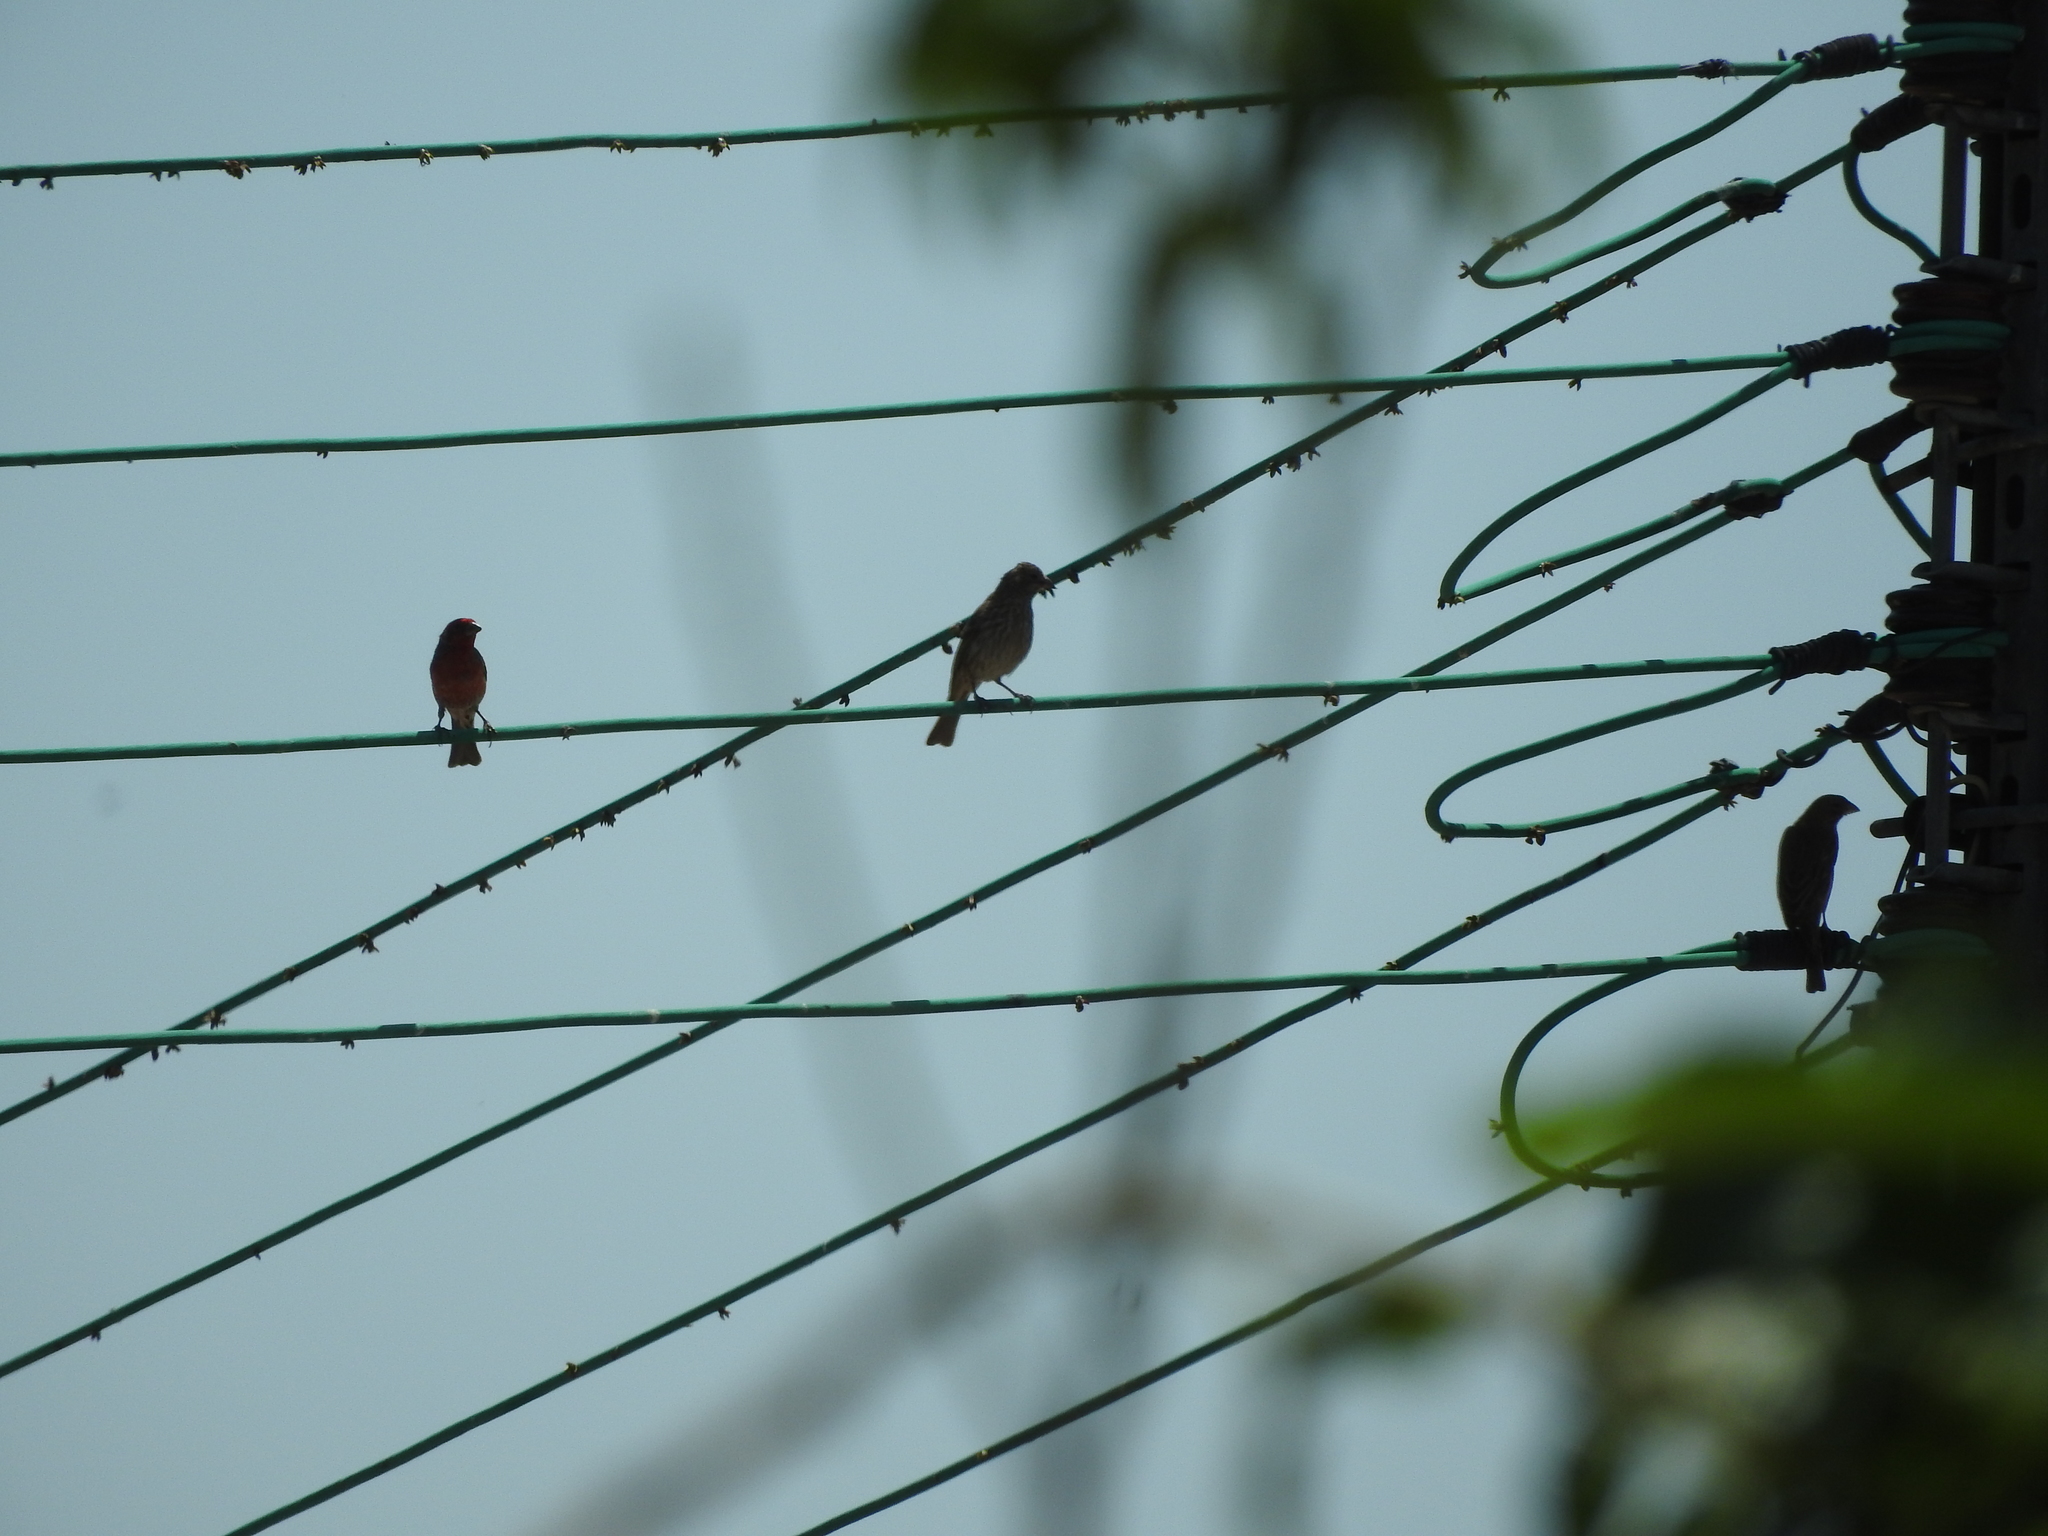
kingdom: Animalia
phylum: Chordata
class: Aves
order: Passeriformes
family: Fringillidae
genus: Haemorhous
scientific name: Haemorhous mexicanus
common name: House finch
